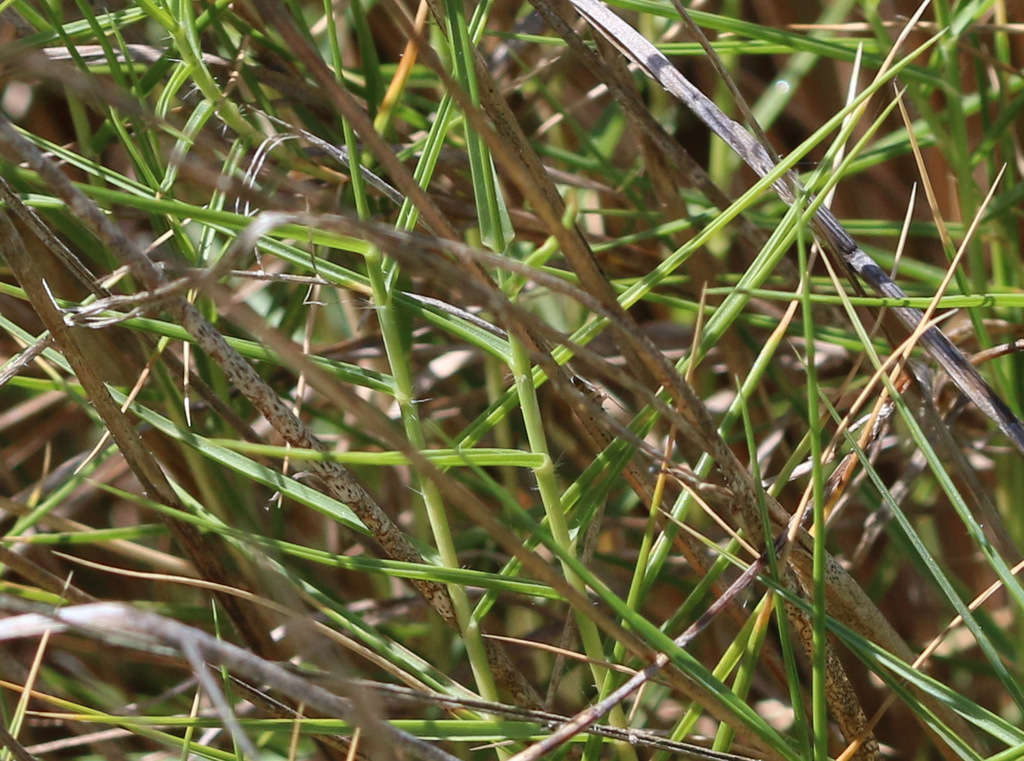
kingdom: Plantae
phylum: Tracheophyta
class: Liliopsida
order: Poales
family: Poaceae
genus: Distichlis
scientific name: Distichlis distichophylla
